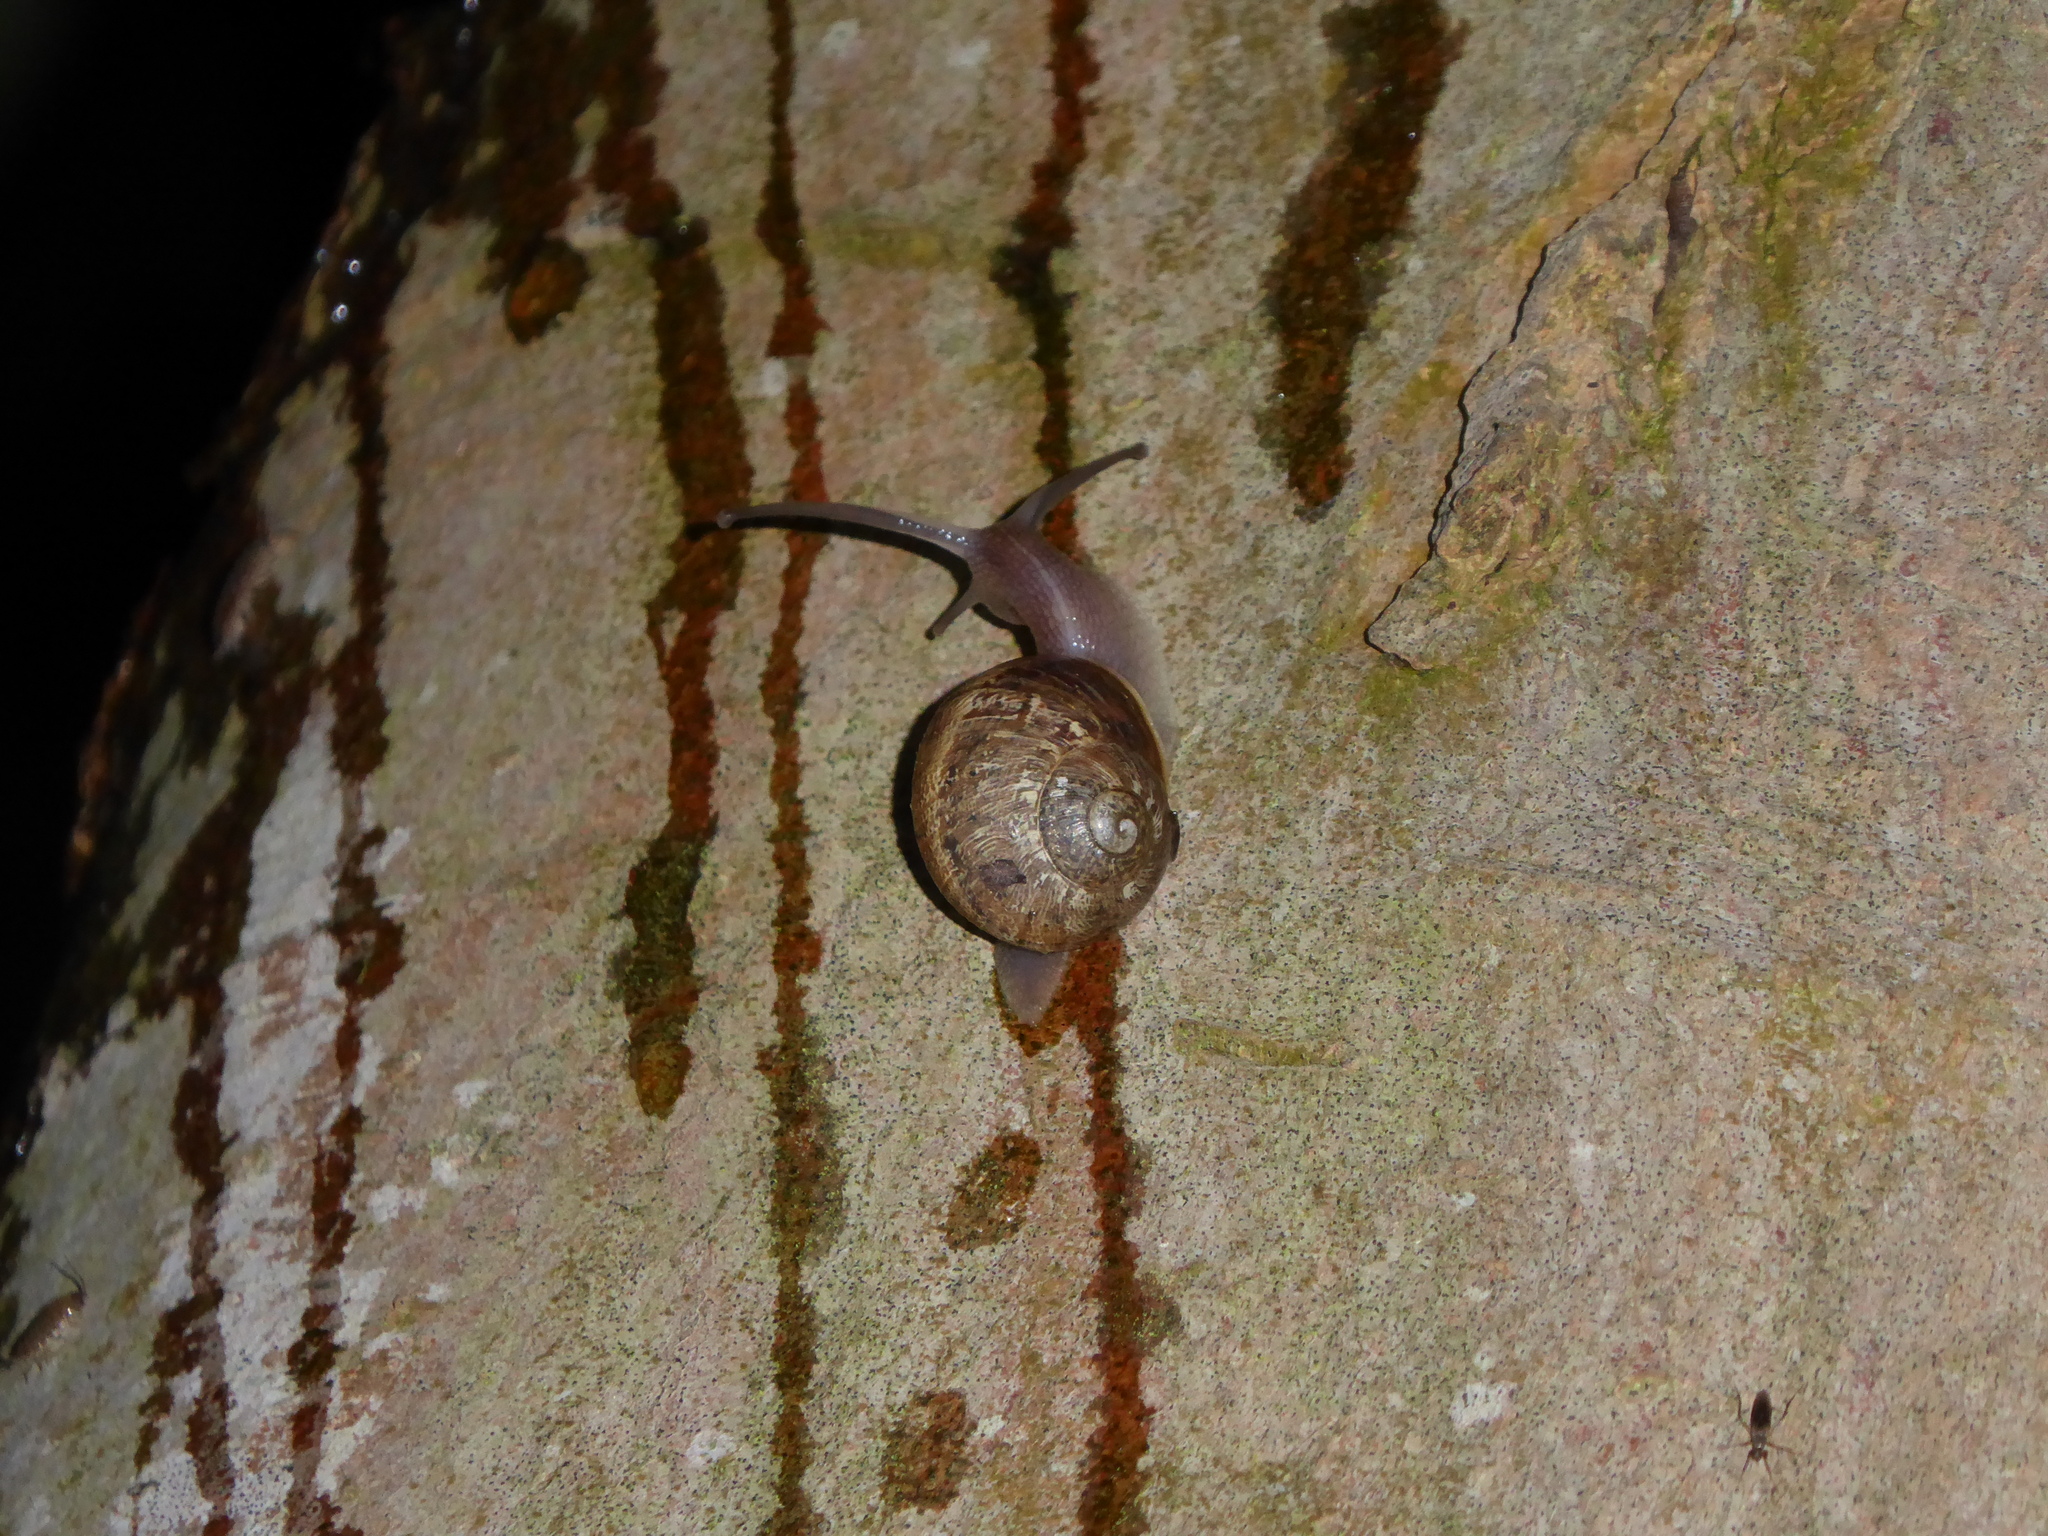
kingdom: Animalia
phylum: Mollusca
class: Gastropoda
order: Stylommatophora
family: Helicidae
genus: Cornu
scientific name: Cornu aspersum
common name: Brown garden snail
